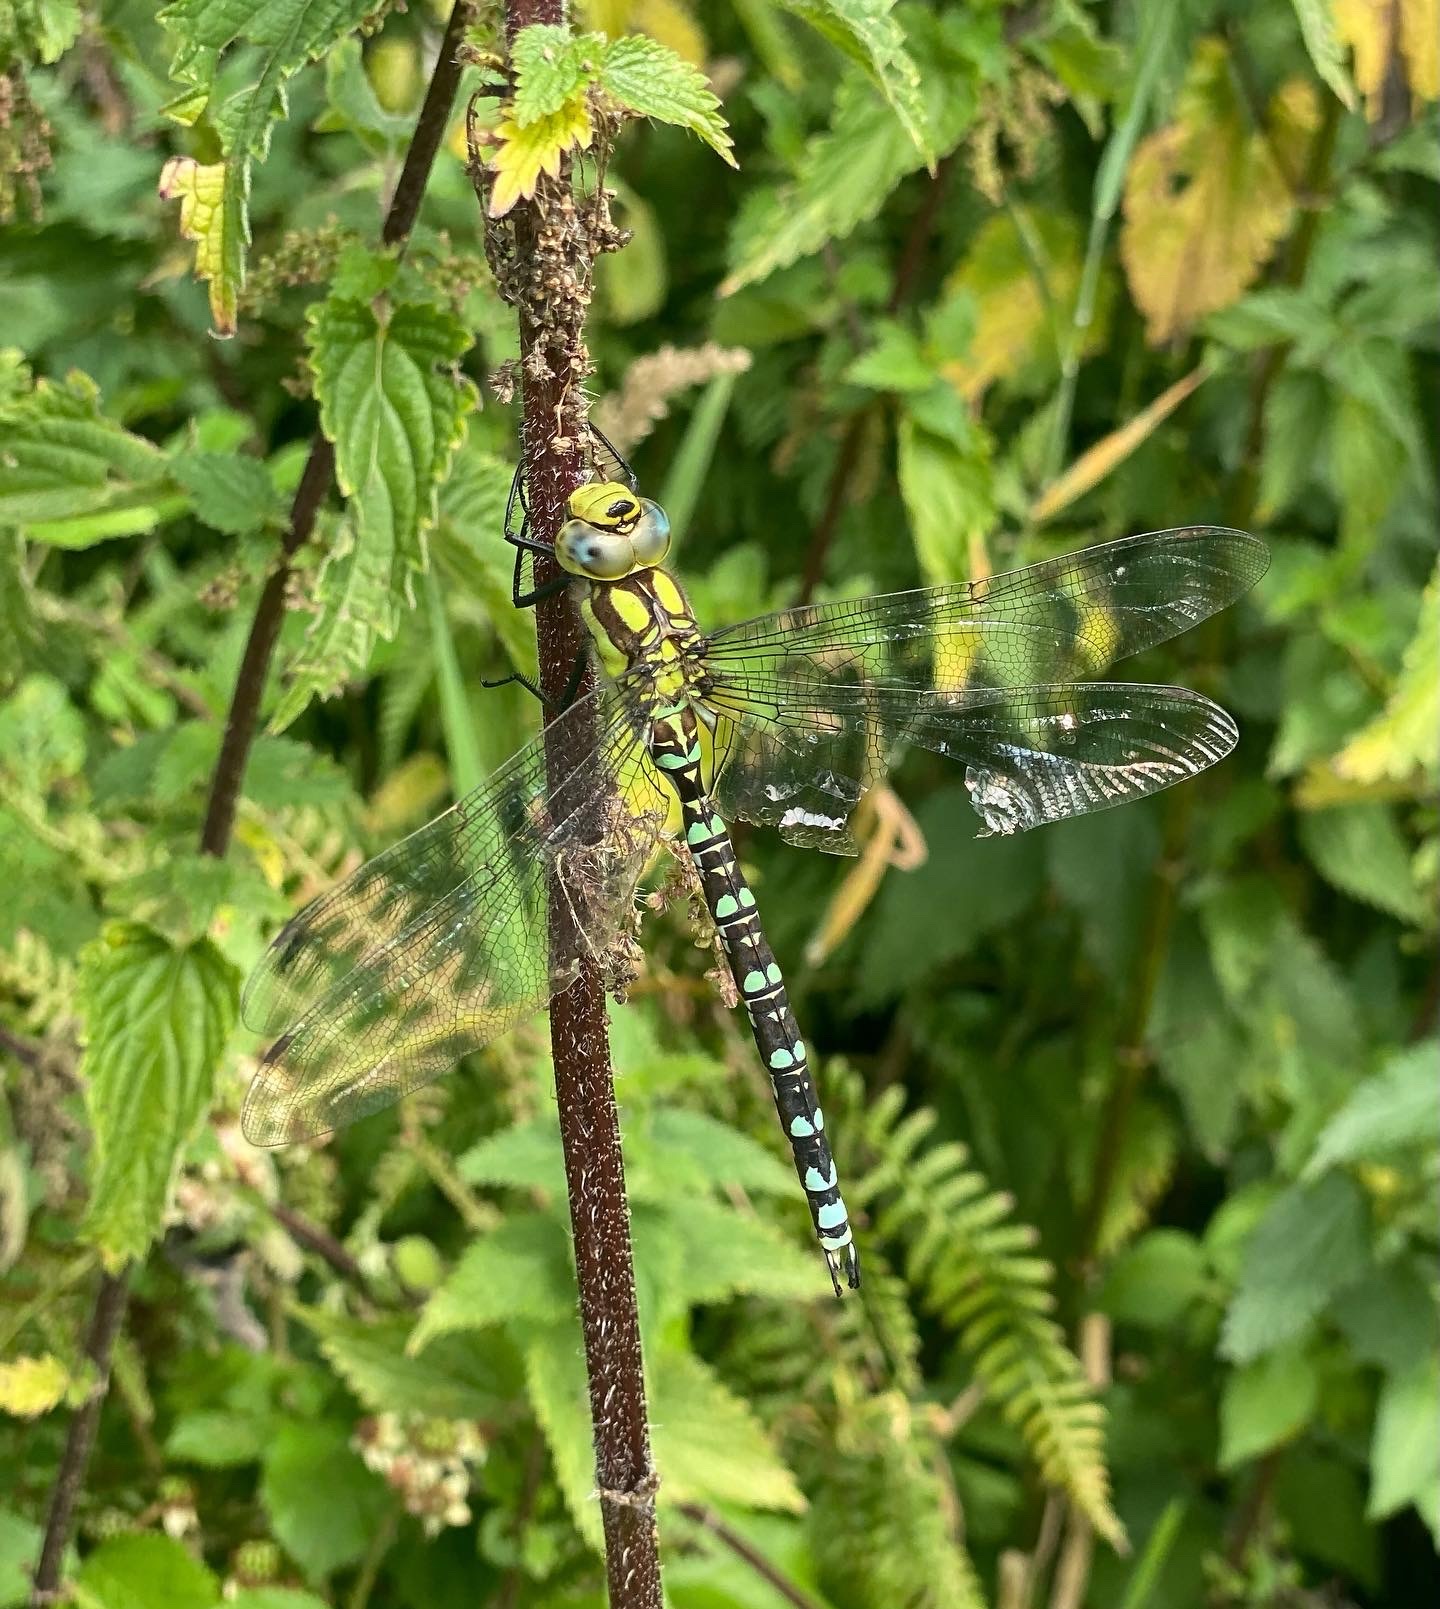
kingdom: Animalia
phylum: Arthropoda
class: Insecta
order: Odonata
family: Aeshnidae
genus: Aeshna
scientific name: Aeshna cyanea
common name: Southern hawker
